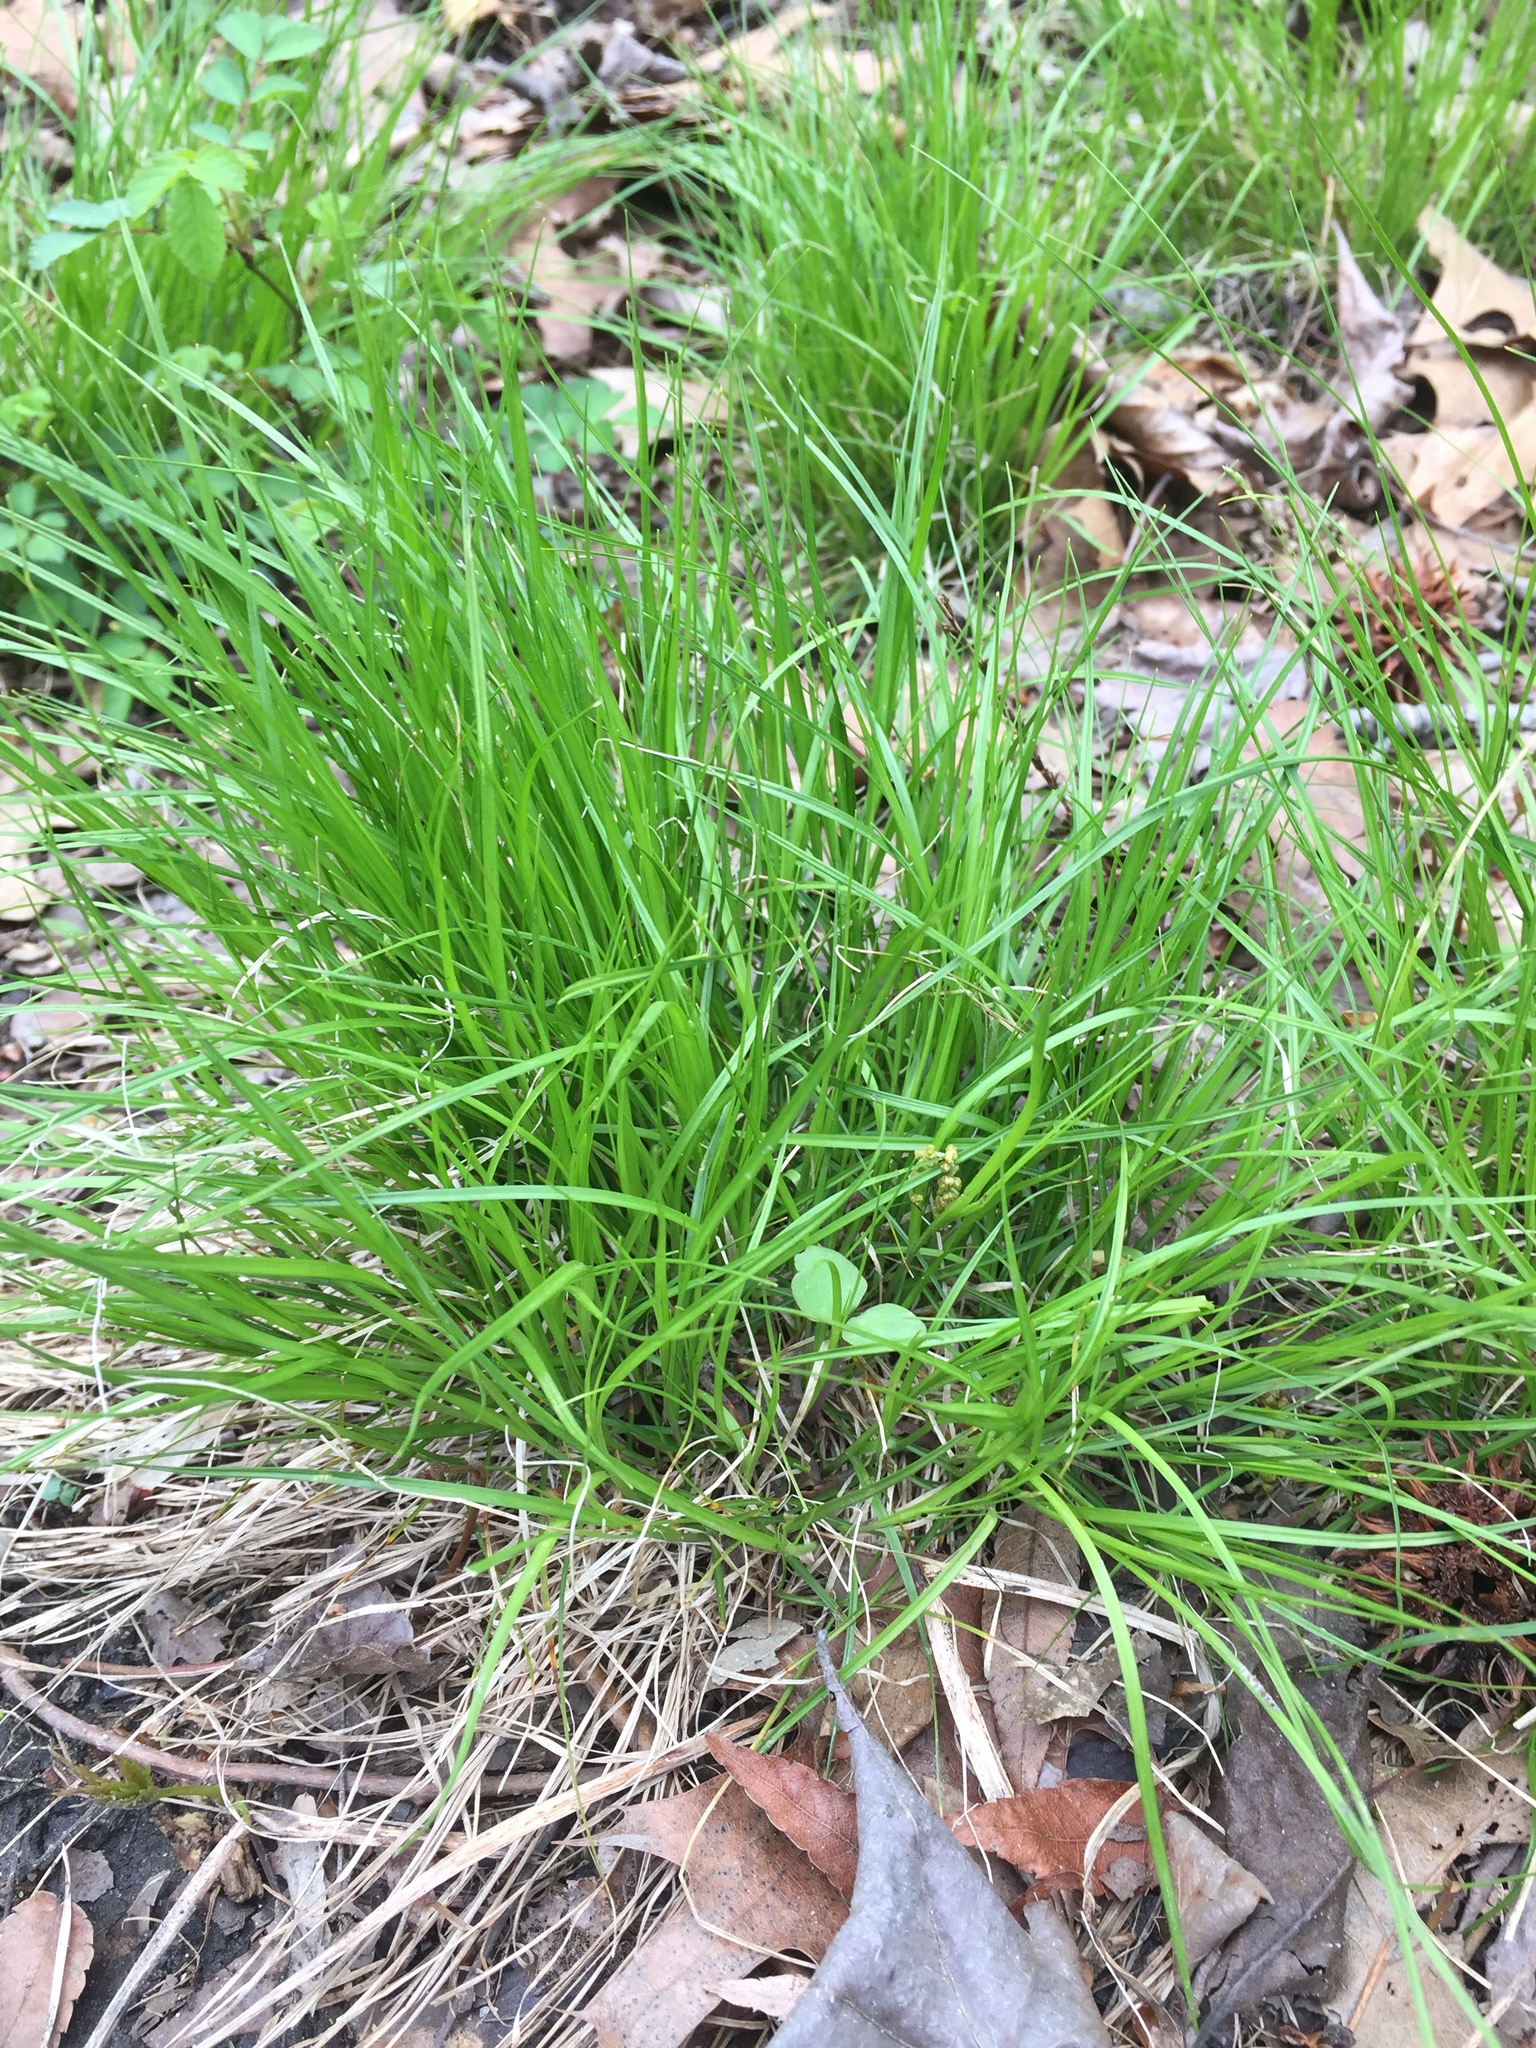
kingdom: Plantae
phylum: Tracheophyta
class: Liliopsida
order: Poales
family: Cyperaceae
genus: Carex
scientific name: Carex pensylvanica
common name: Common oak sedge
